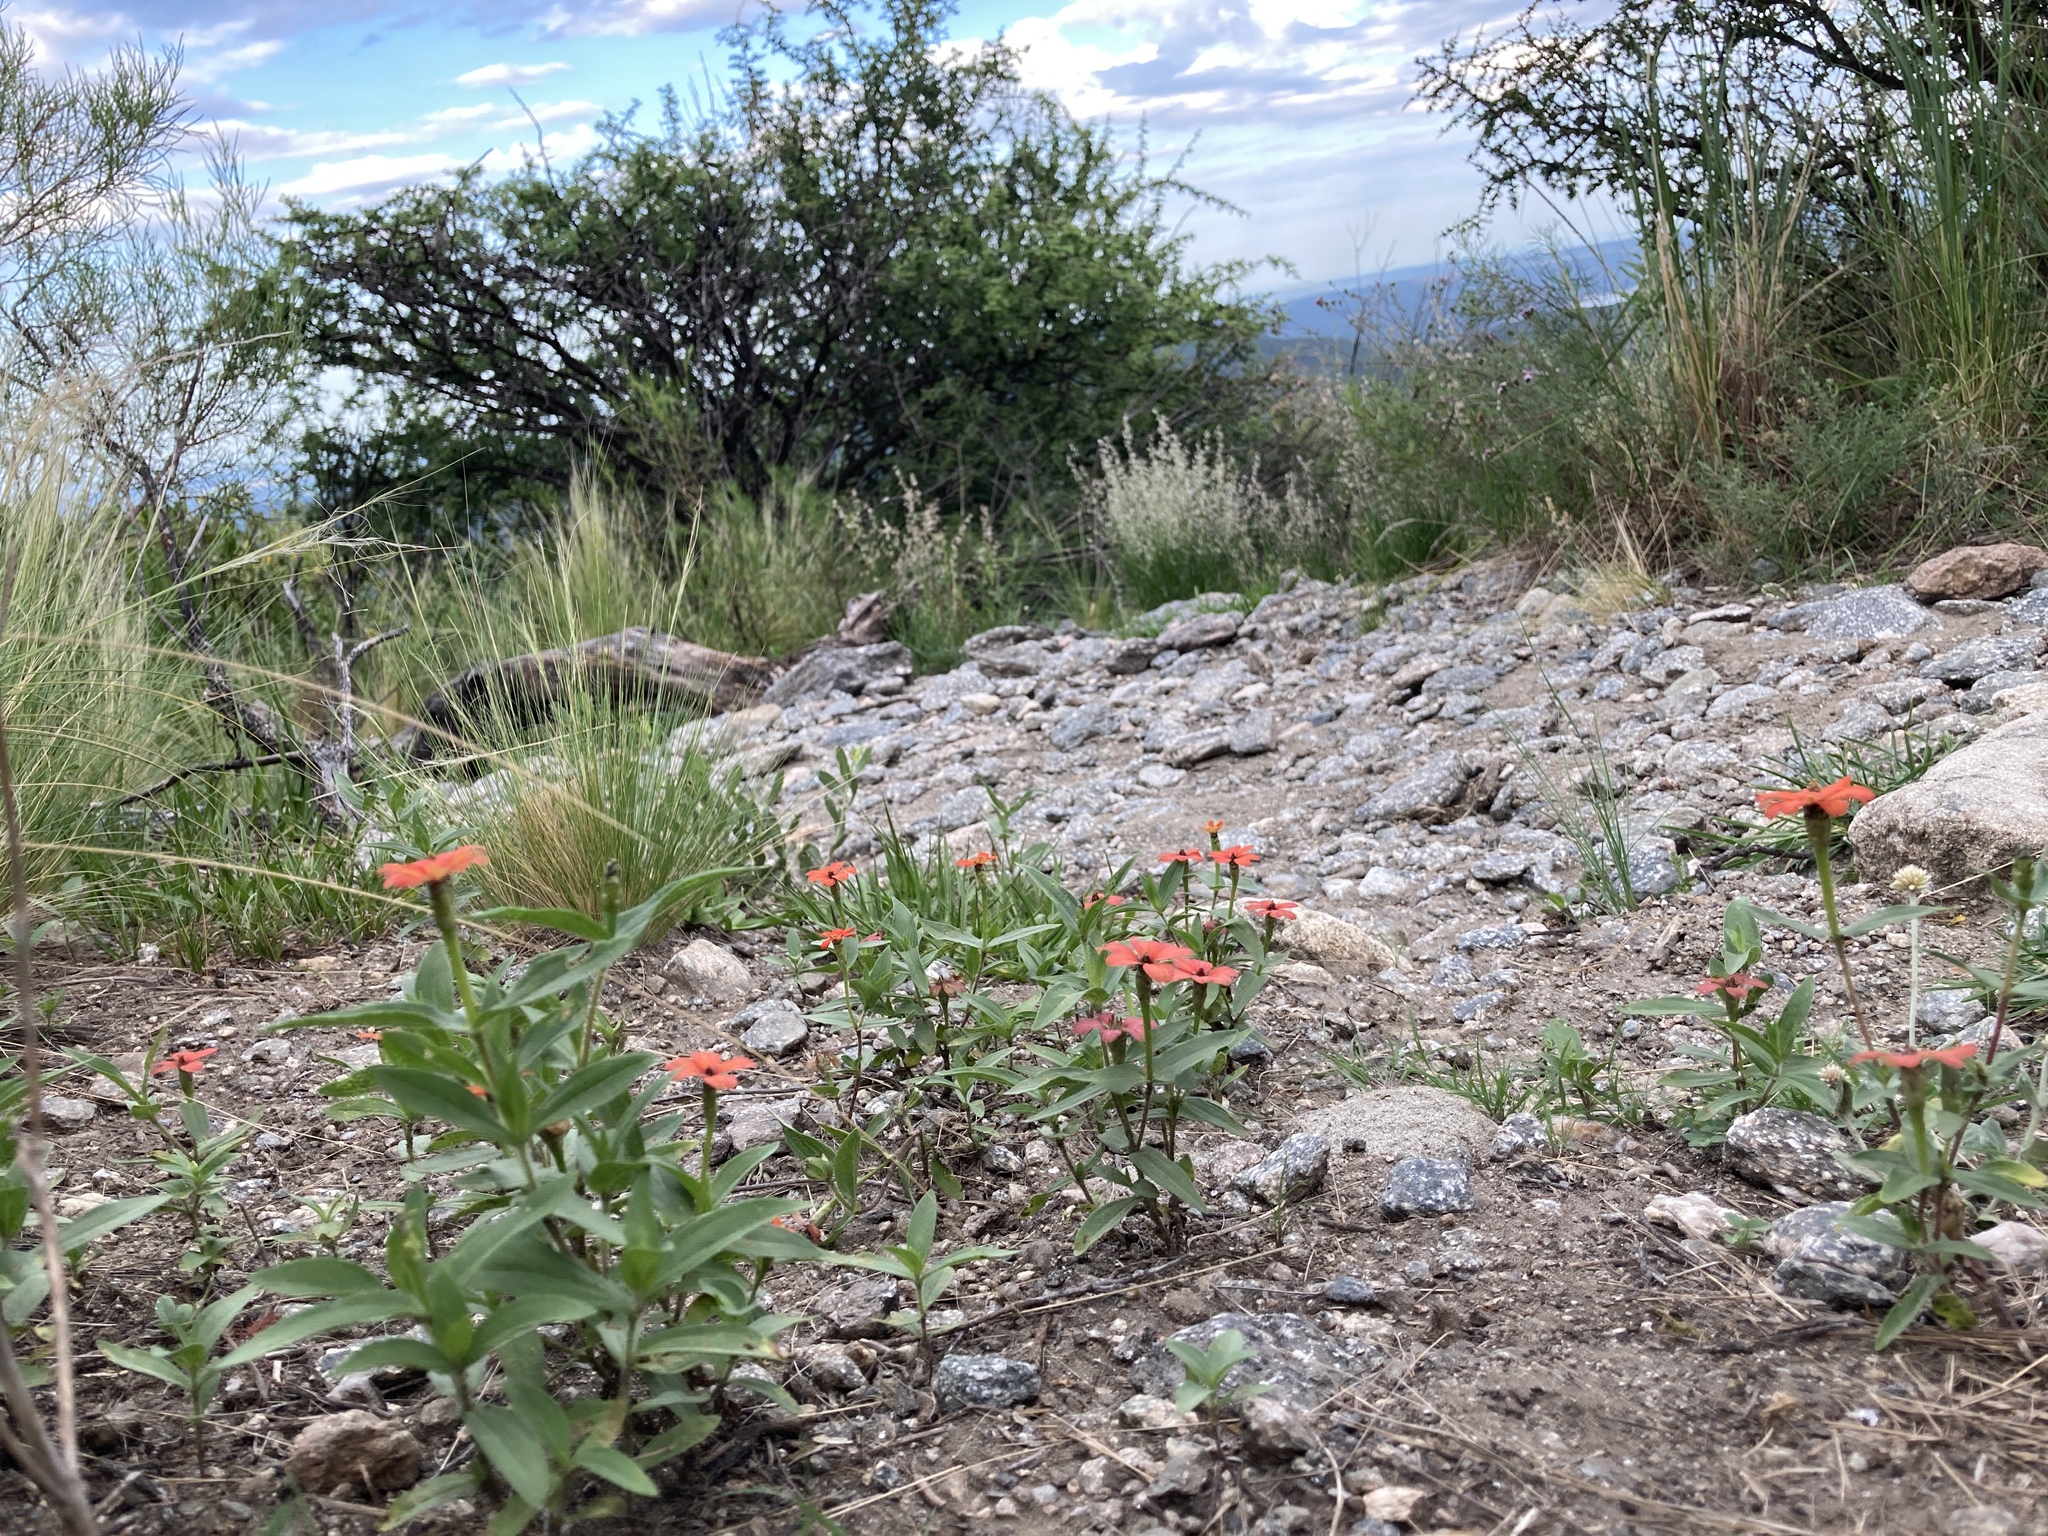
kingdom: Plantae
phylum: Tracheophyta
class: Magnoliopsida
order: Asterales
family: Asteraceae
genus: Zinnia
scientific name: Zinnia peruviana
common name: Peruvian zinnia
